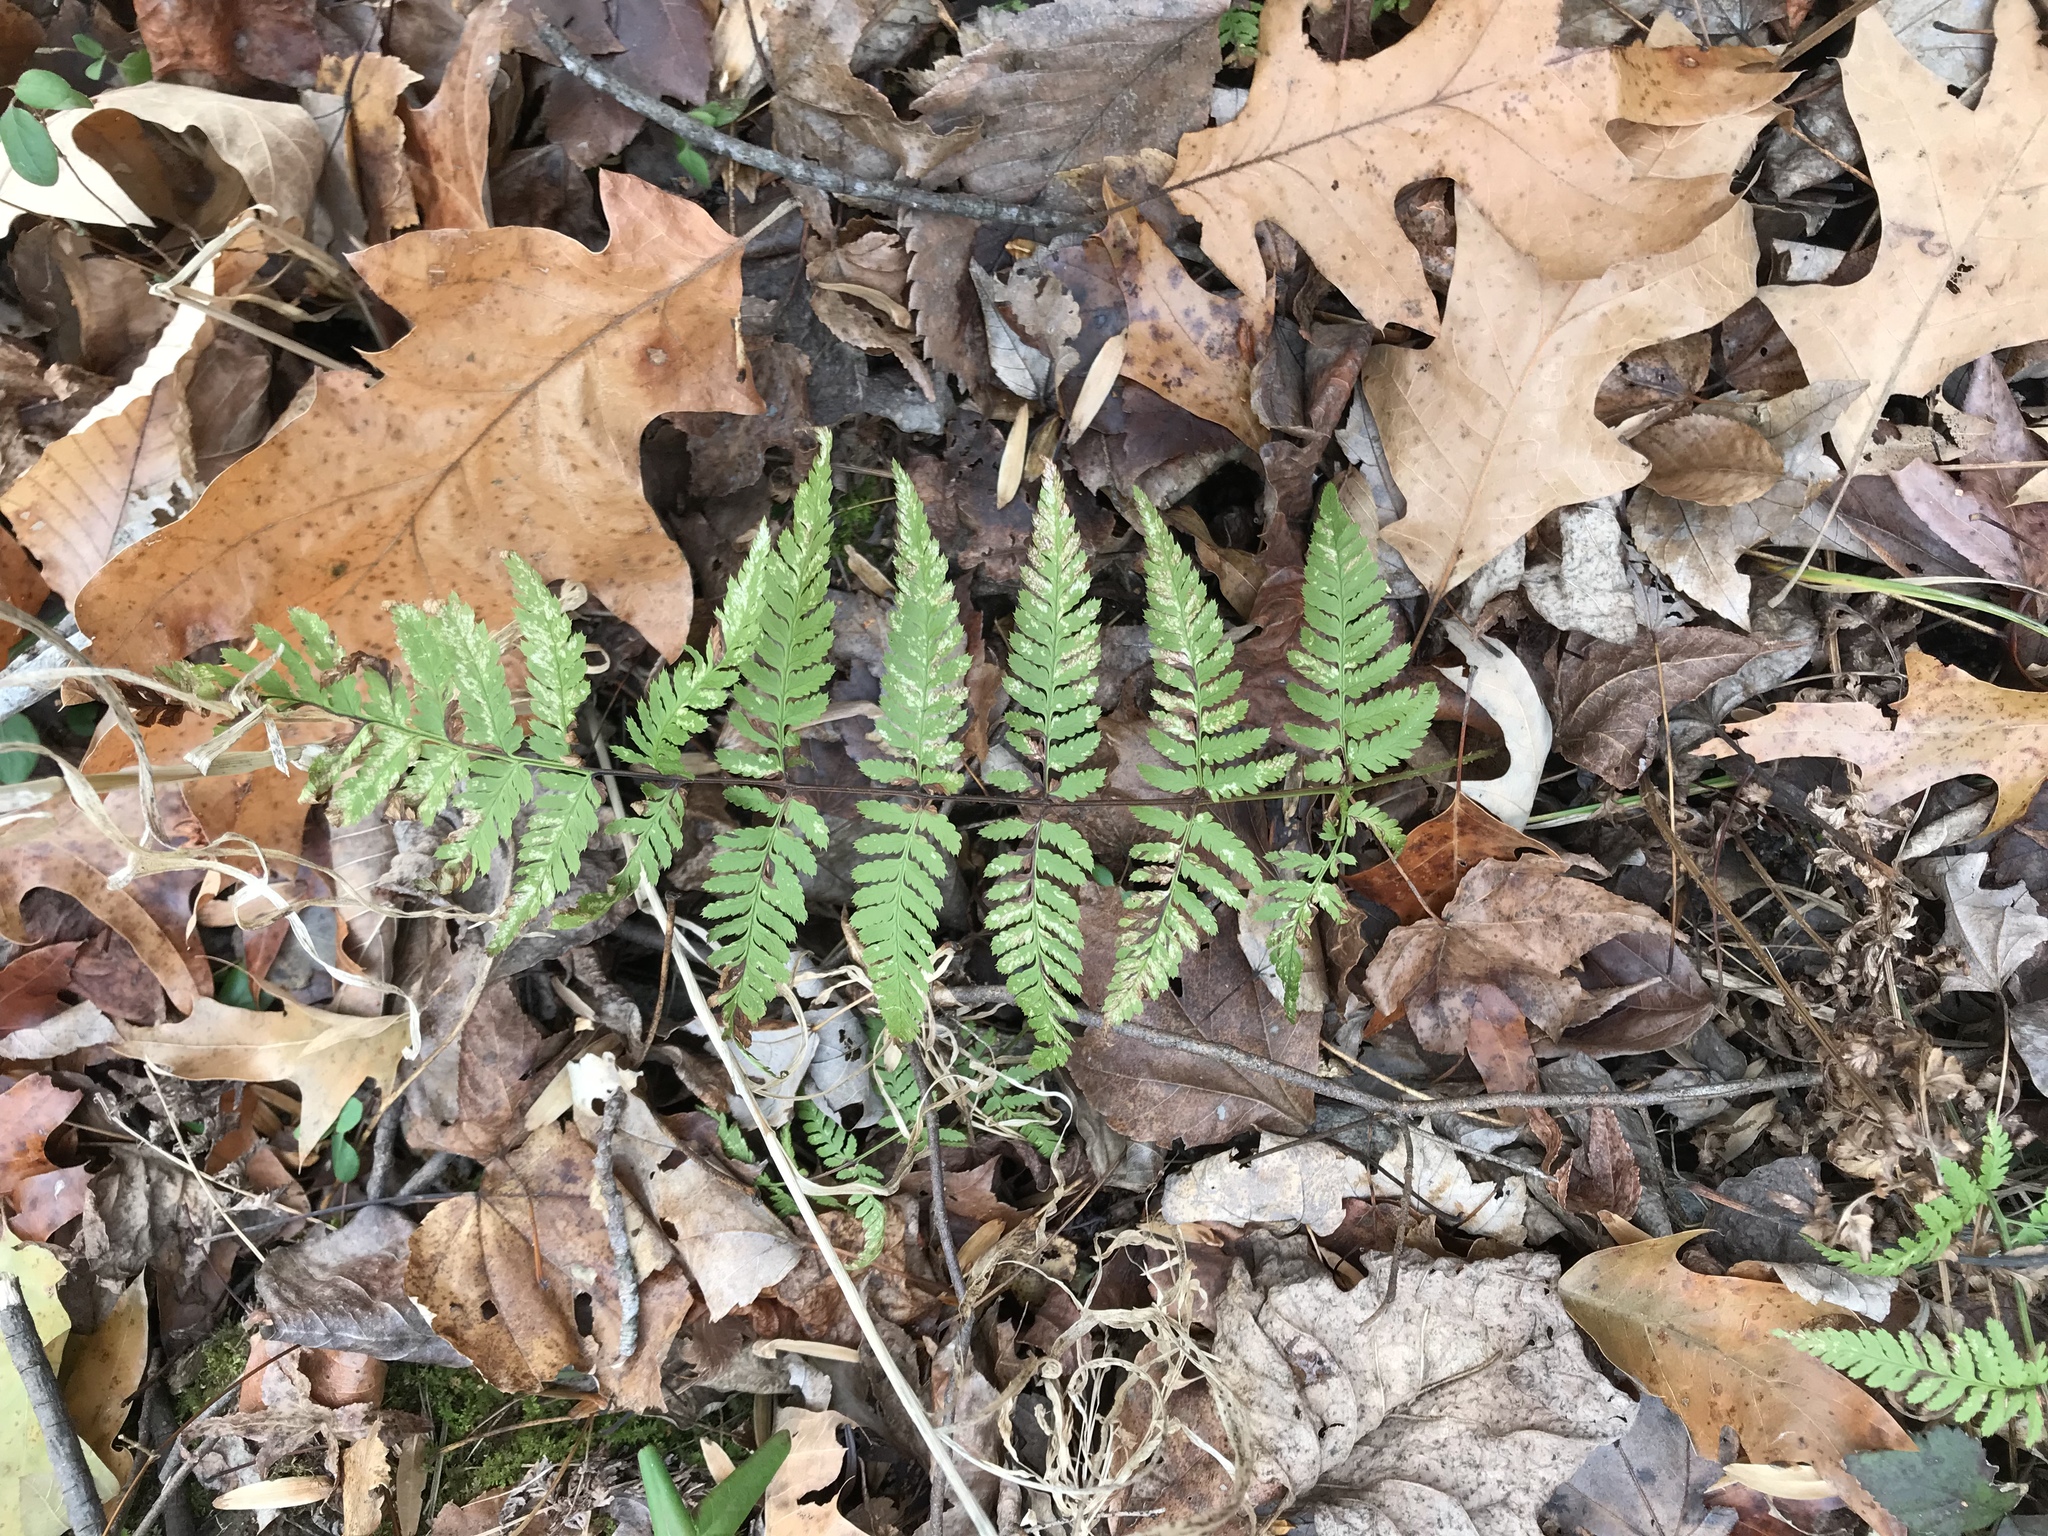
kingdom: Plantae
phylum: Tracheophyta
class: Polypodiopsida
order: Polypodiales
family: Dryopteridaceae
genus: Dryopteris
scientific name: Dryopteris carthusiana
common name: Narrow buckler-fern
